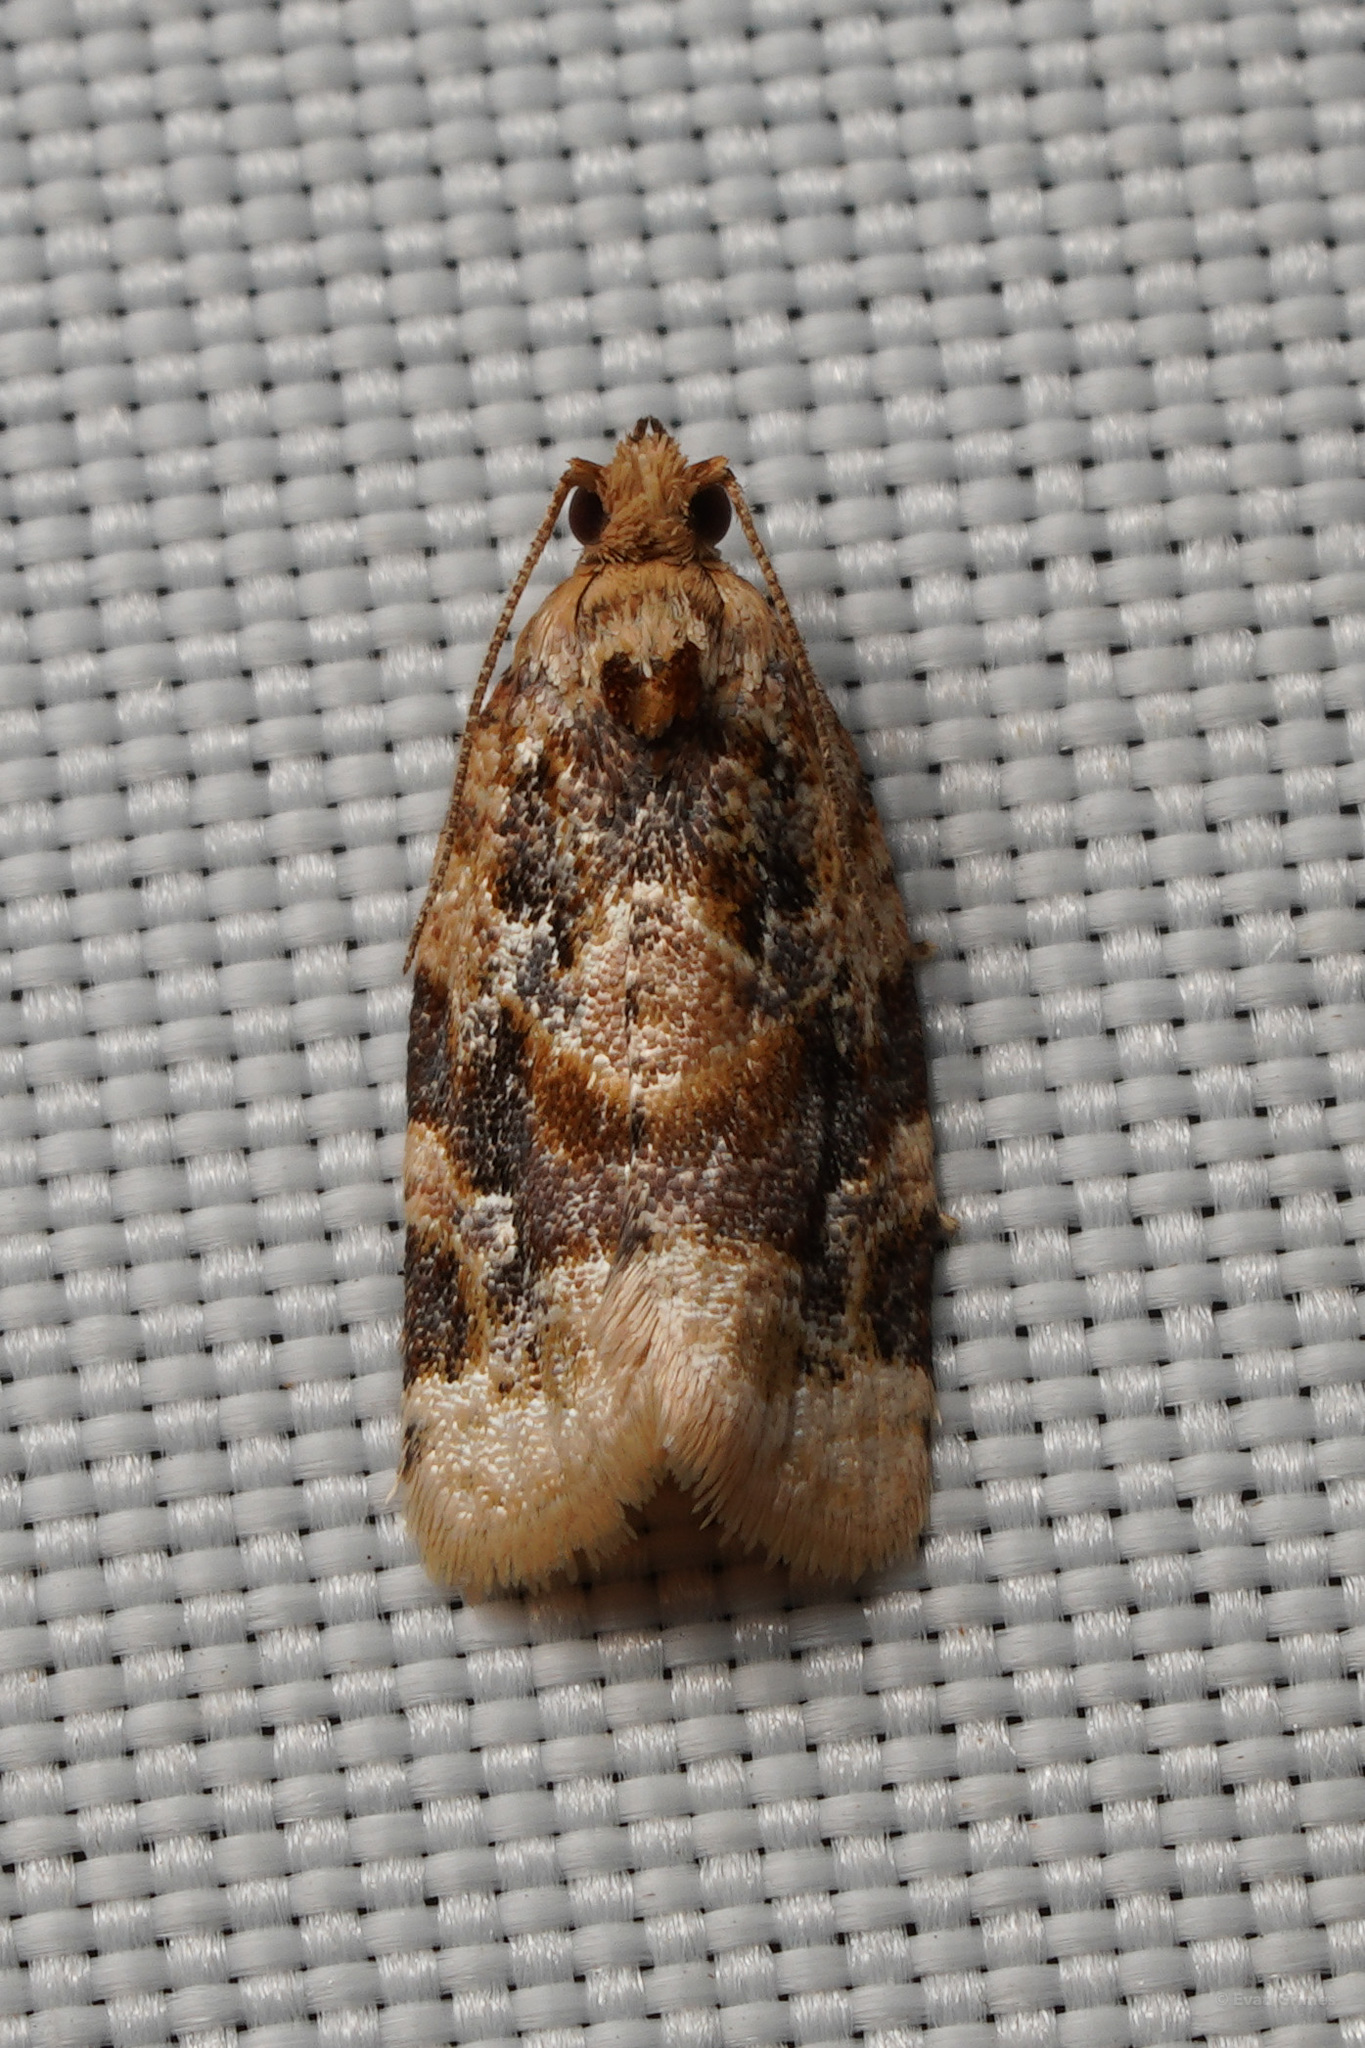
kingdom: Animalia
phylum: Arthropoda
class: Insecta
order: Lepidoptera
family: Tortricidae
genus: Argyrotaenia
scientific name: Argyrotaenia velutinana
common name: Red-banded leafroller moth
